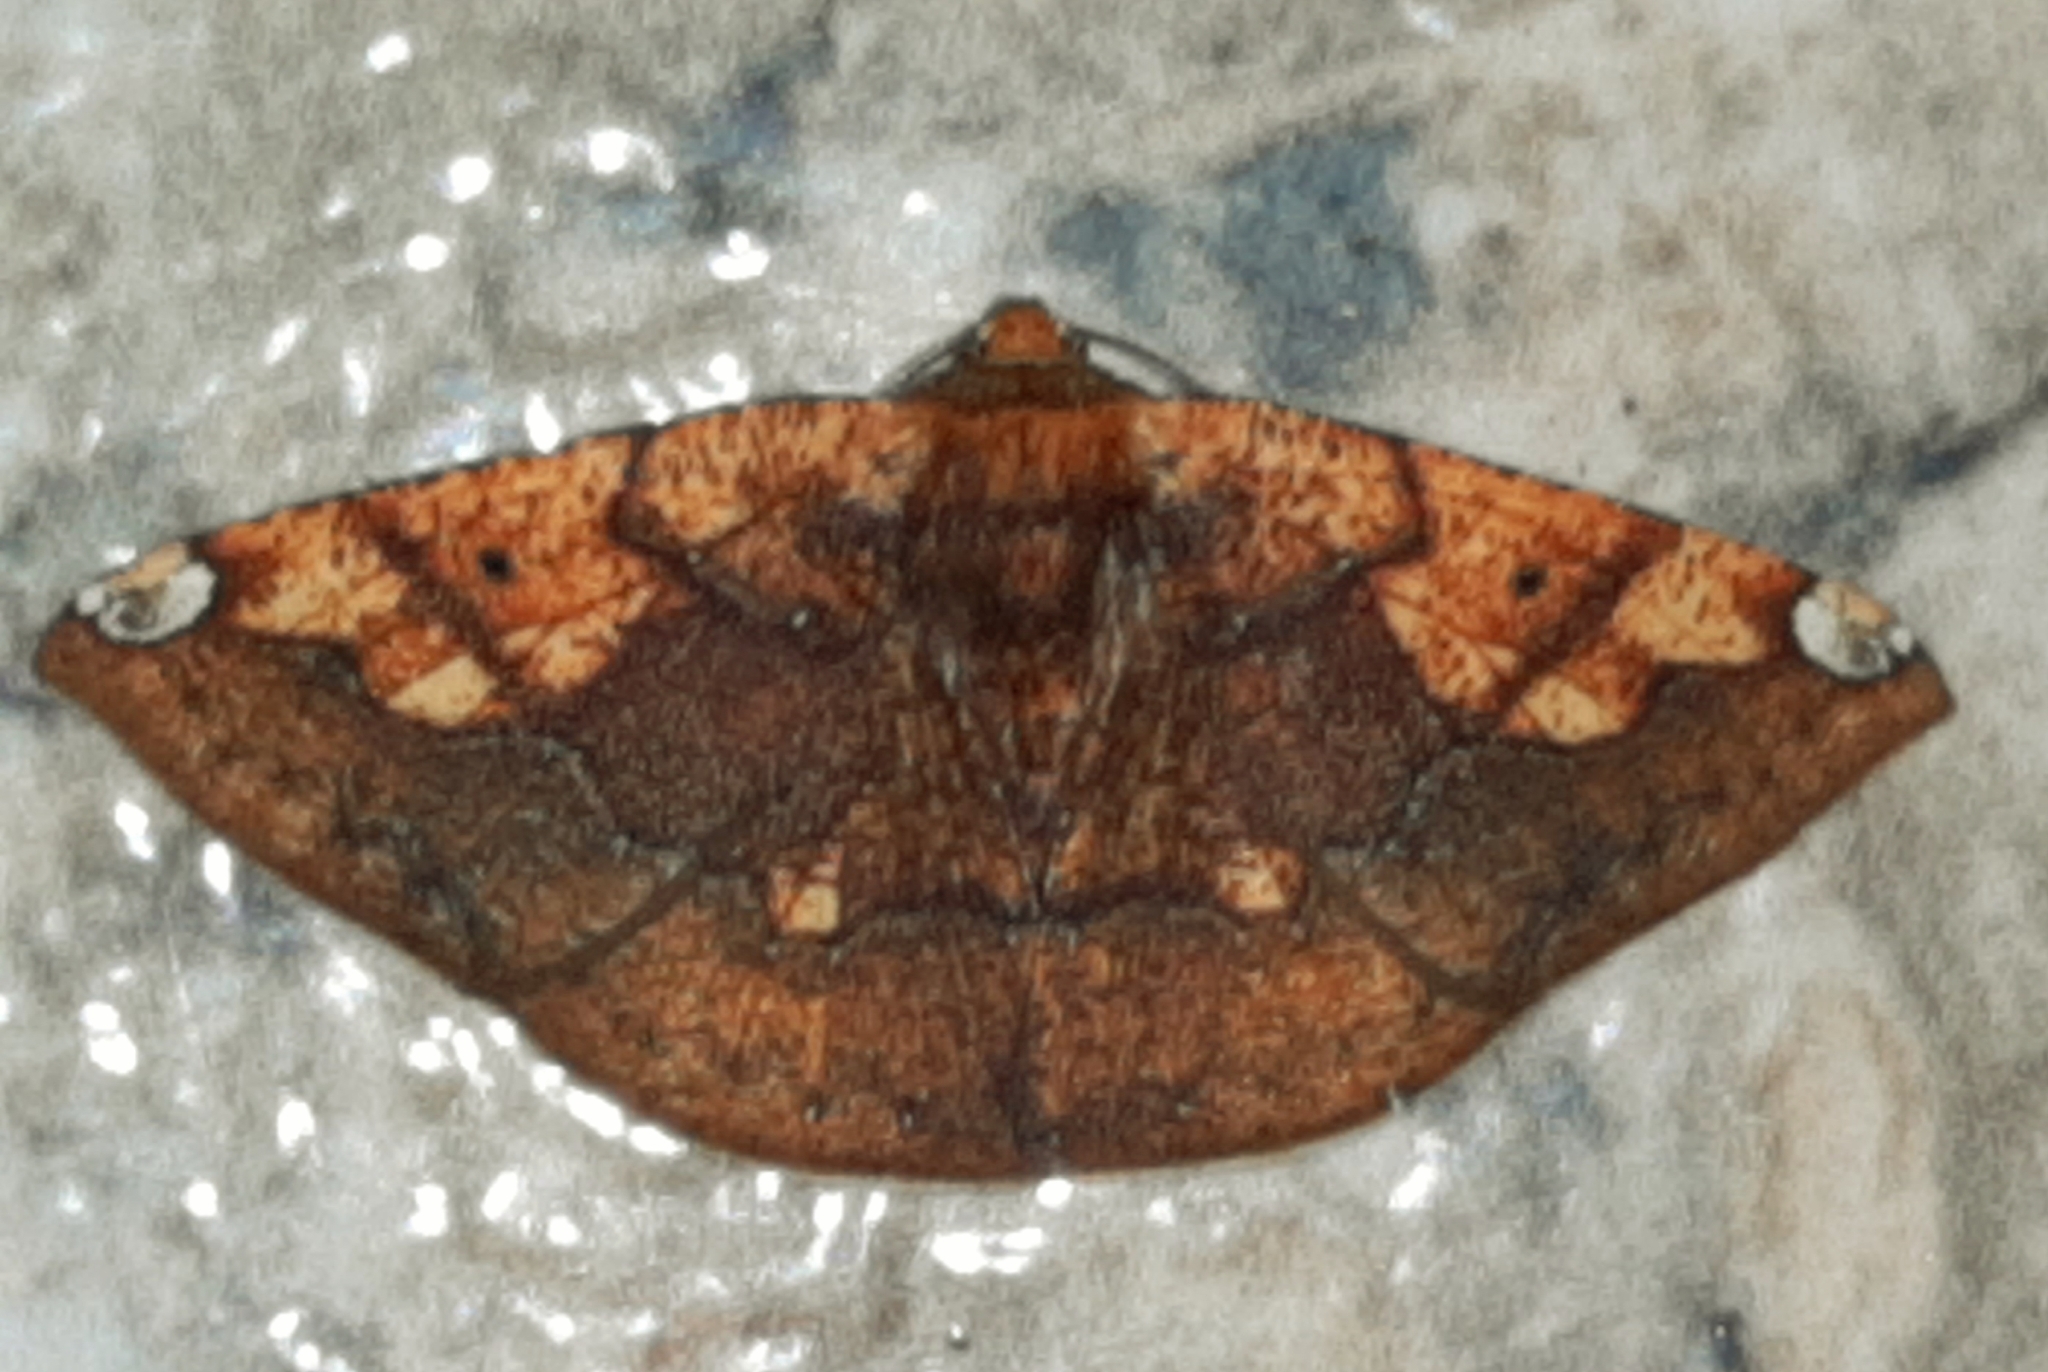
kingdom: Animalia
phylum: Arthropoda
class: Insecta
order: Lepidoptera
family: Geometridae
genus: Acrosemia
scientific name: Acrosemia tigrata
